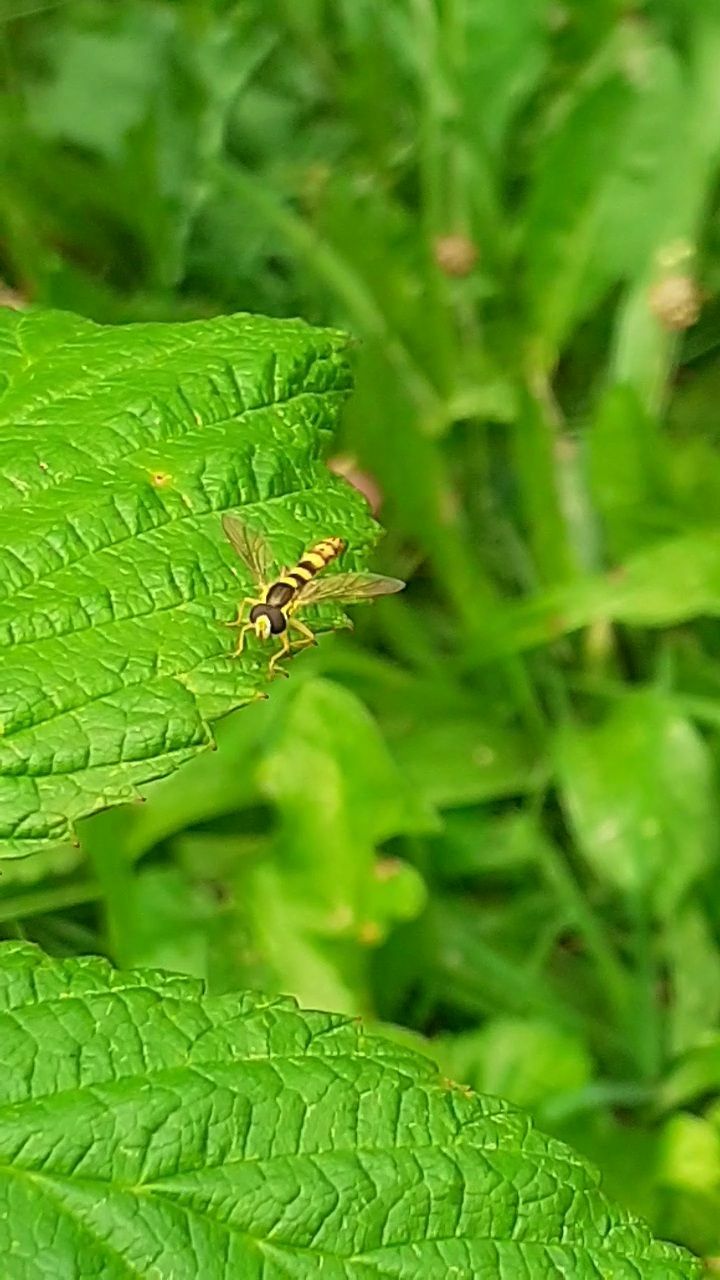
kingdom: Animalia
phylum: Arthropoda
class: Insecta
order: Diptera
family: Syrphidae
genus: Sphaerophoria
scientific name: Sphaerophoria scripta
